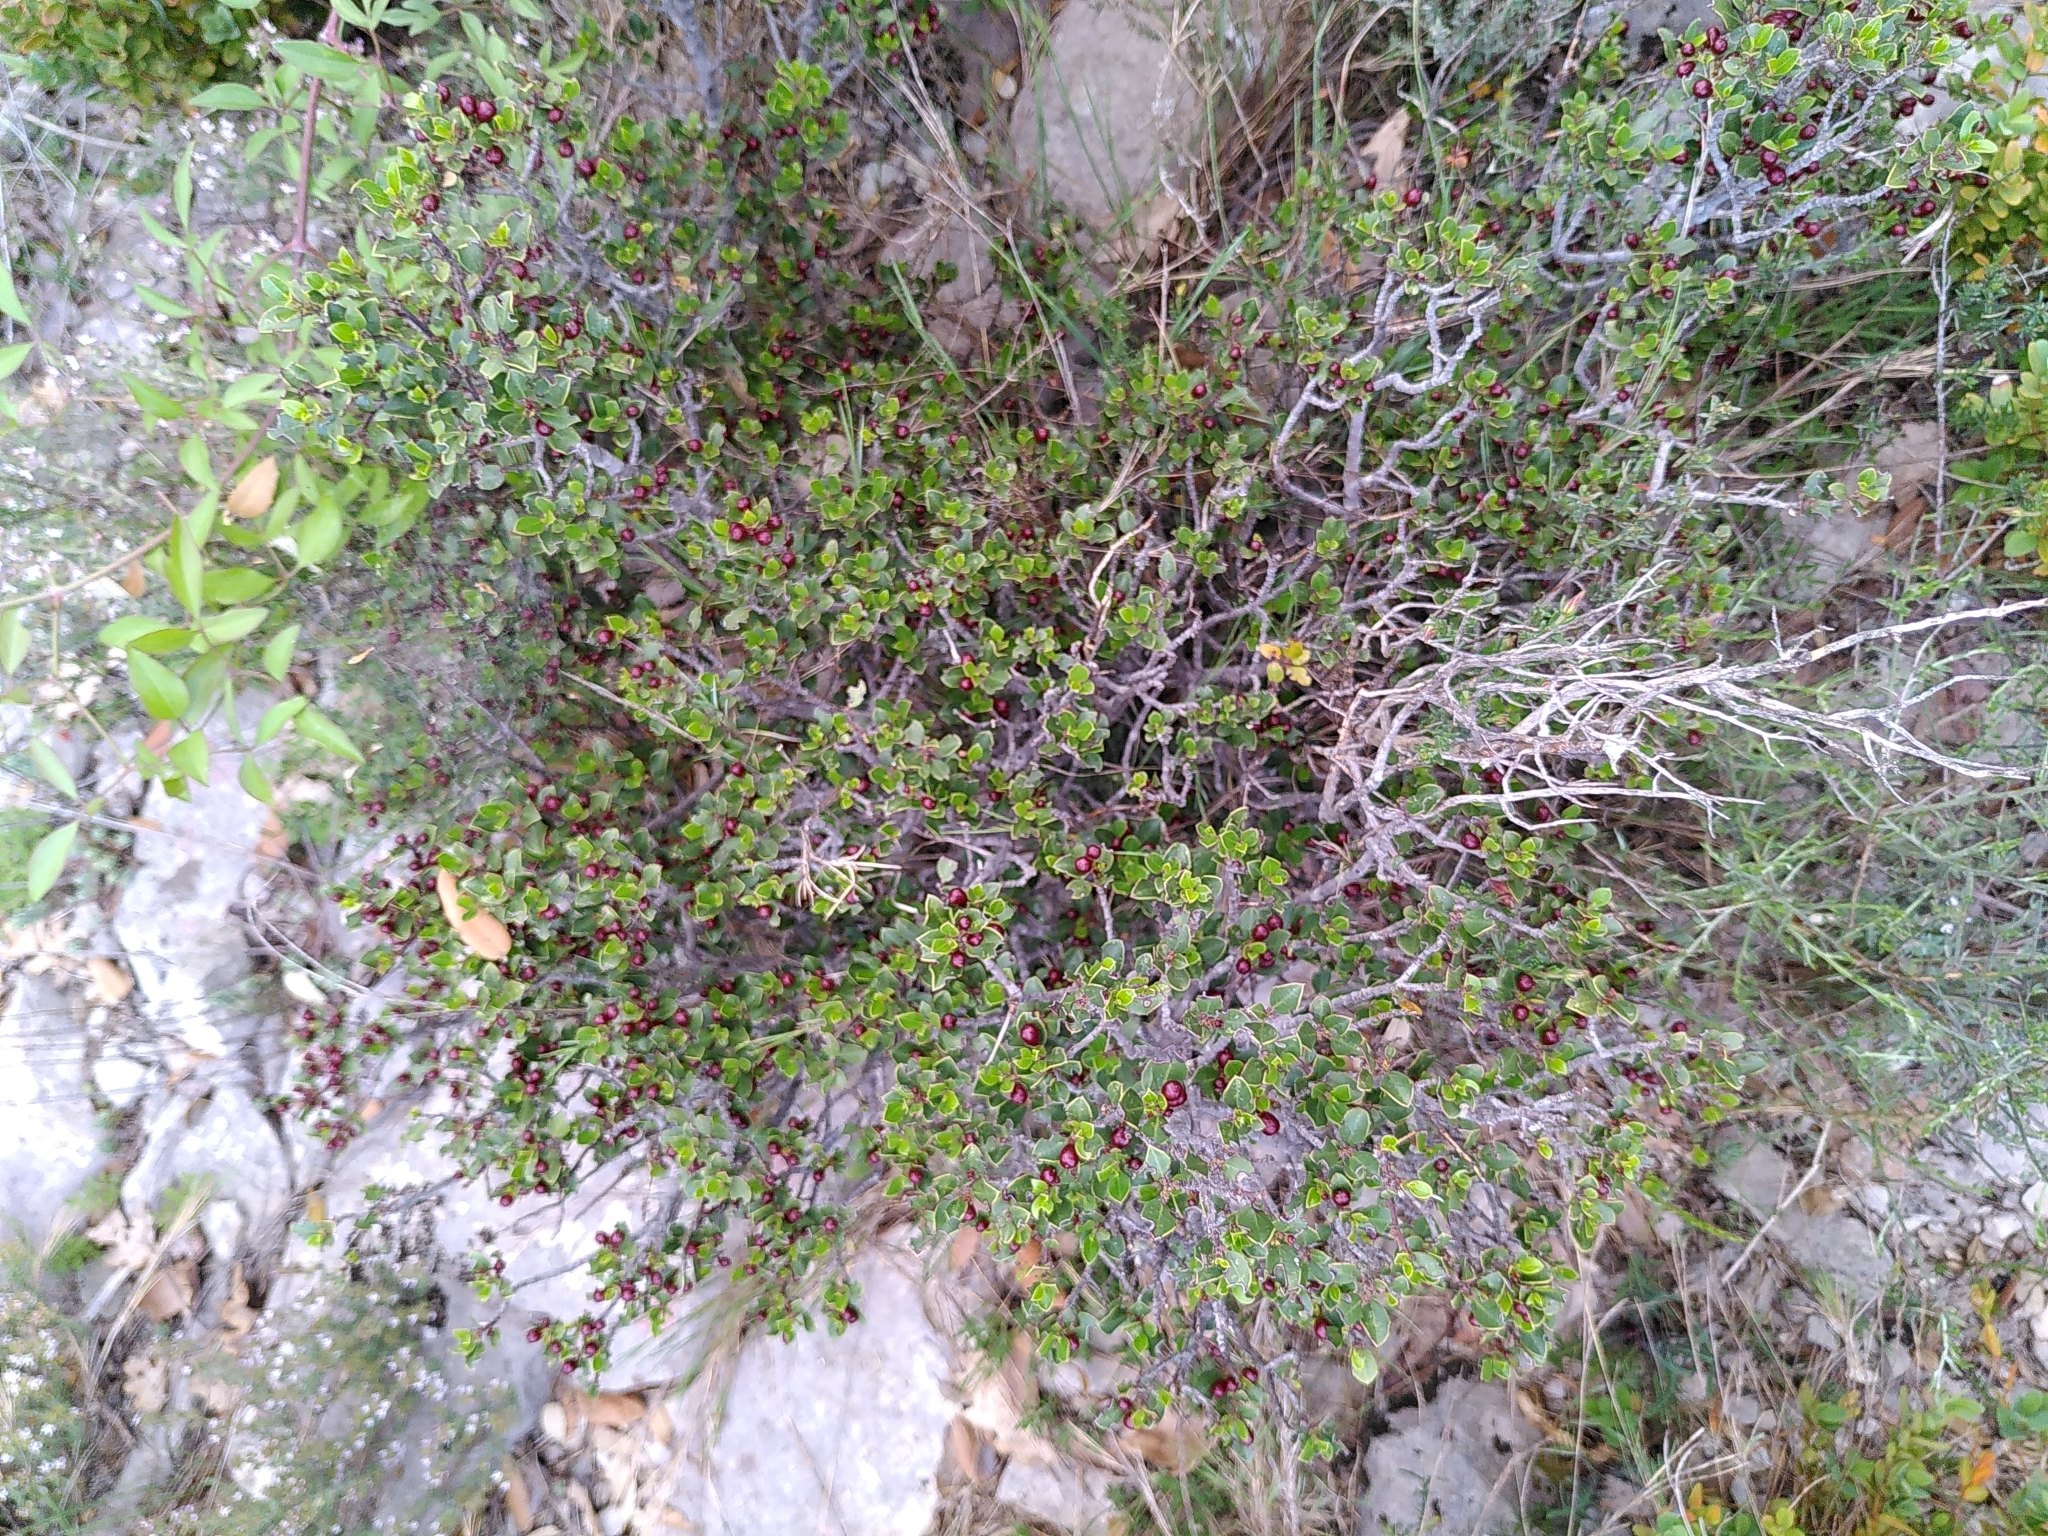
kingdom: Plantae
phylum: Tracheophyta
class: Magnoliopsida
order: Rosales
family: Rhamnaceae
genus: Rhamnus
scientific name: Rhamnus alaternus
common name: Mediterranean buckthorn
